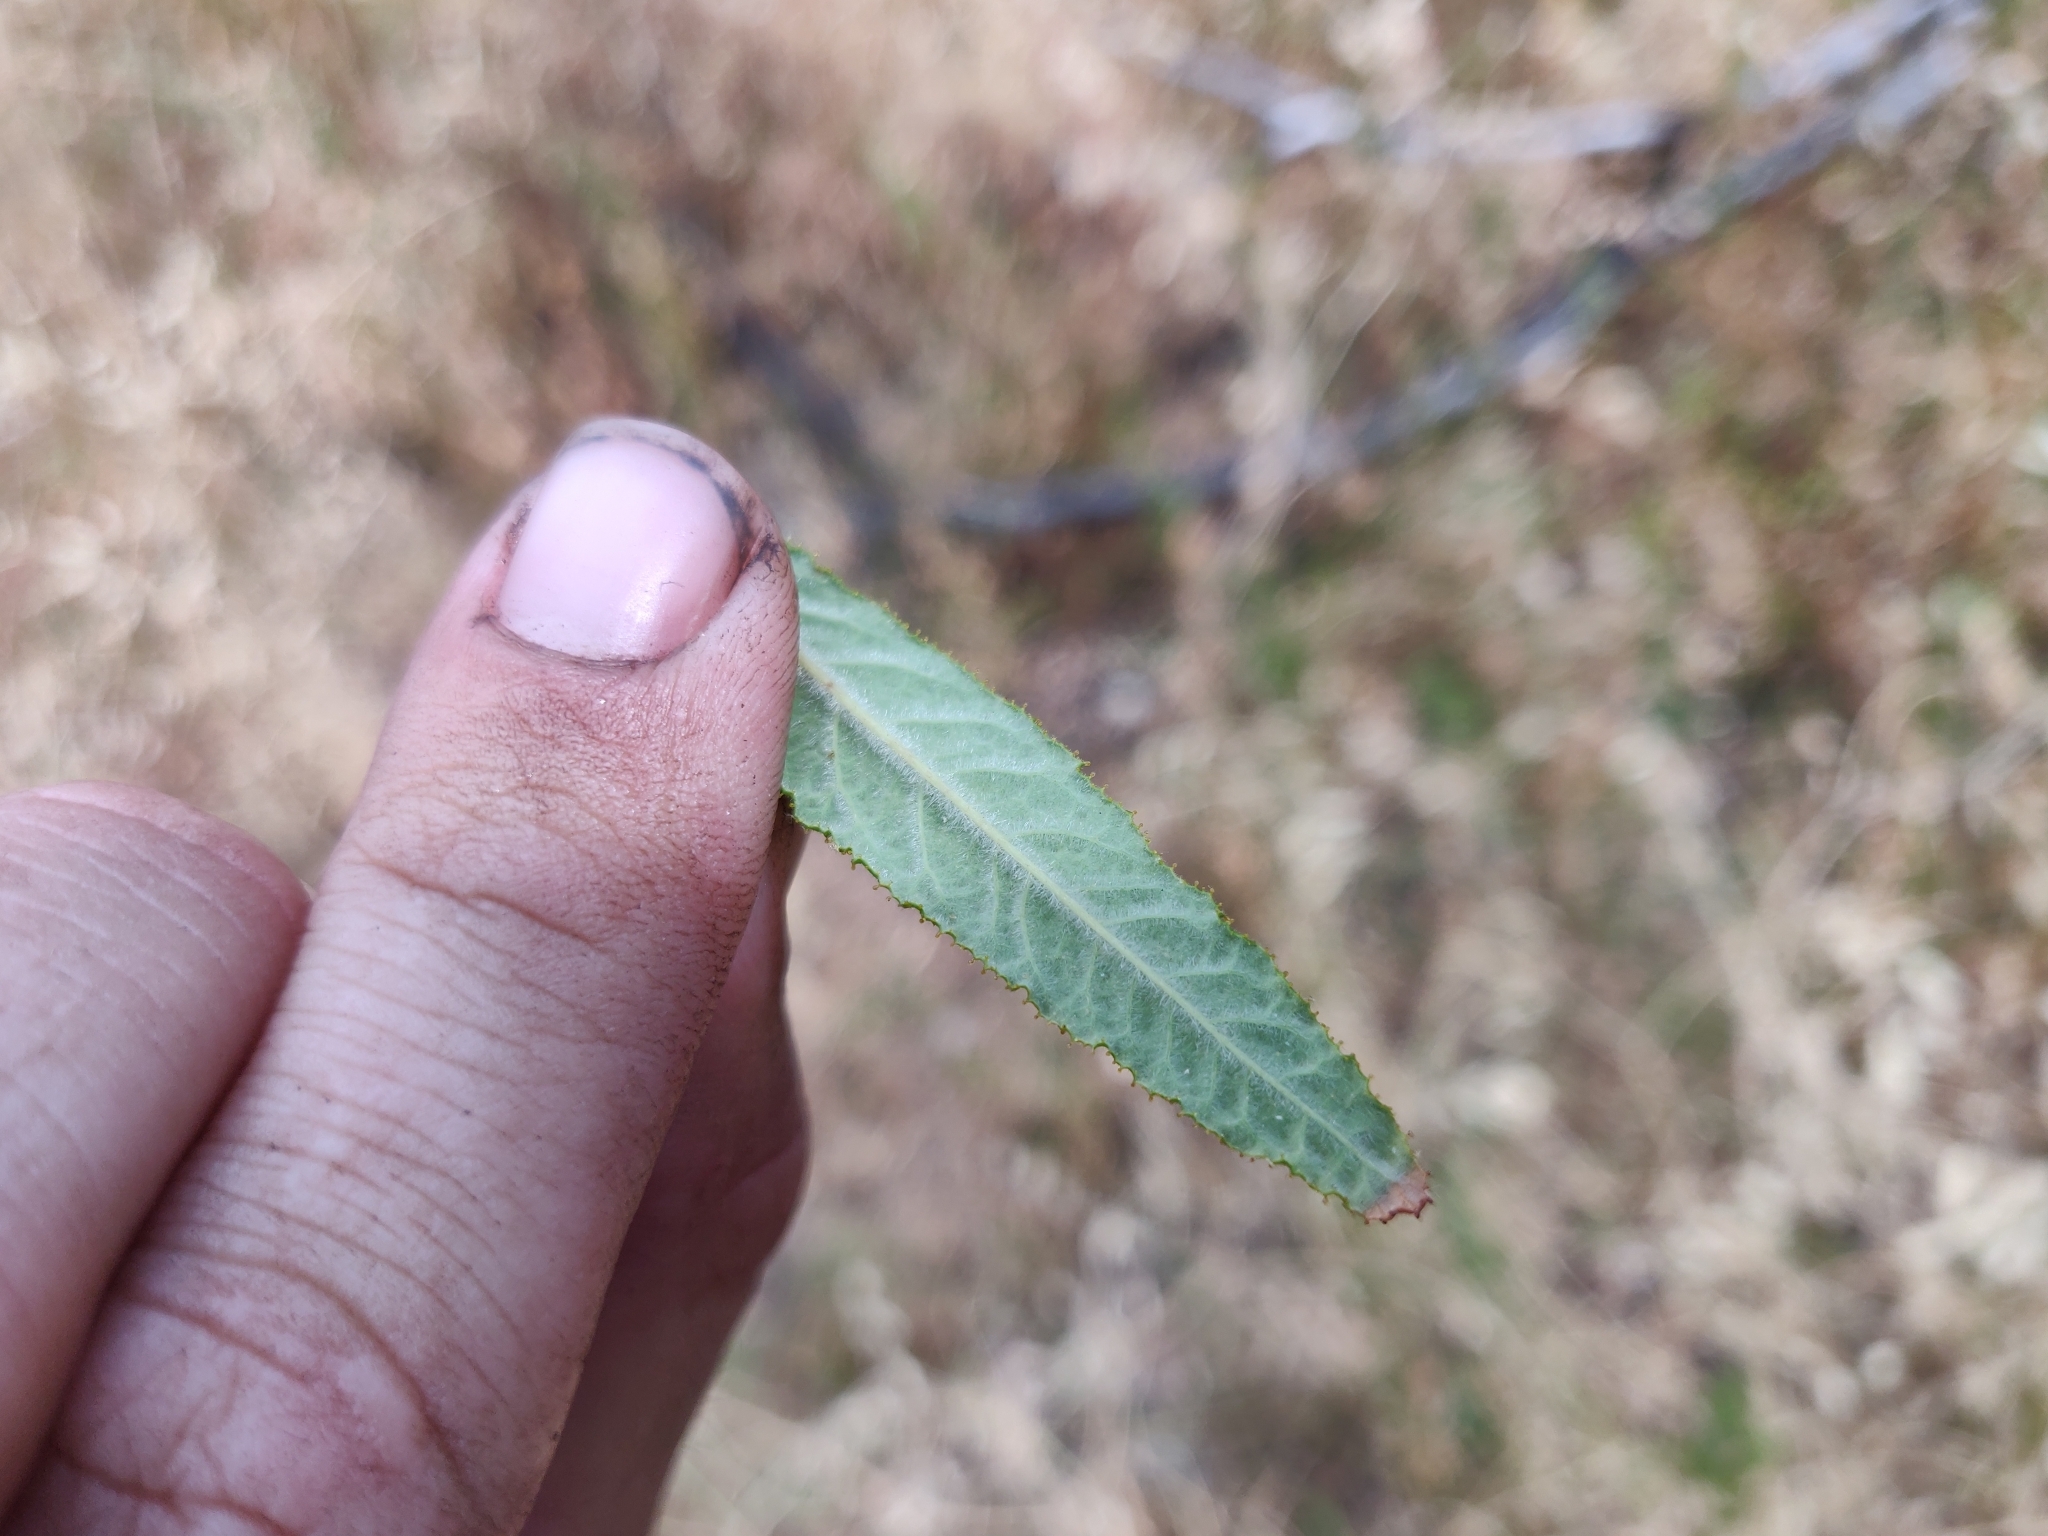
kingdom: Plantae
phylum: Tracheophyta
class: Magnoliopsida
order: Rosales
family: Rhamnaceae
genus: Ceanothus
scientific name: Ceanothus papillosus
